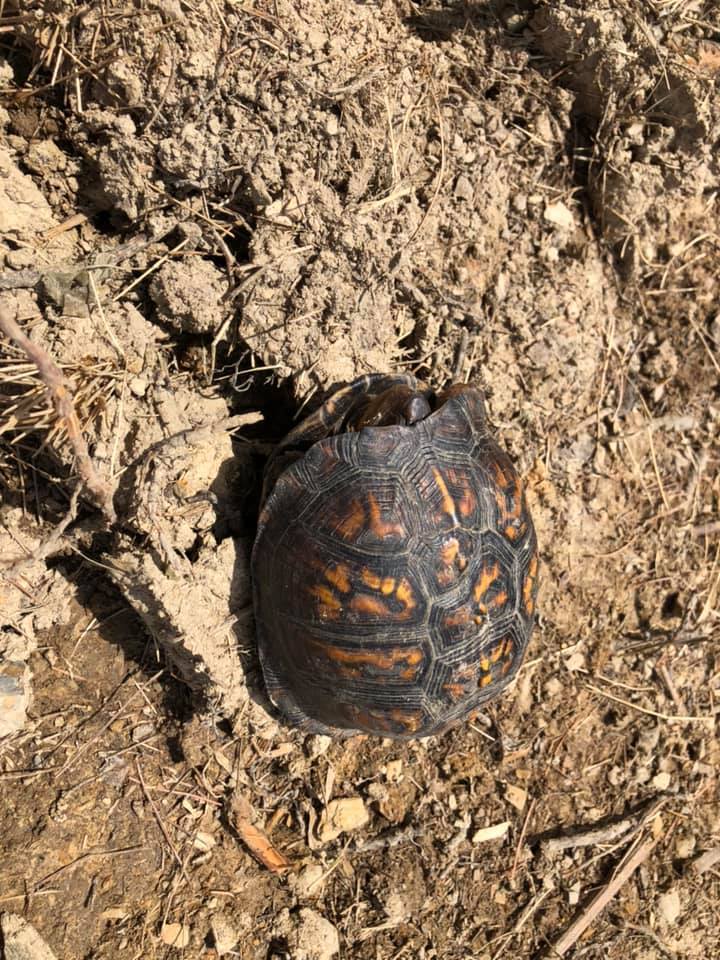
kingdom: Animalia
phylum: Chordata
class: Testudines
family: Emydidae
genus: Terrapene
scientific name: Terrapene carolina
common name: Common box turtle
